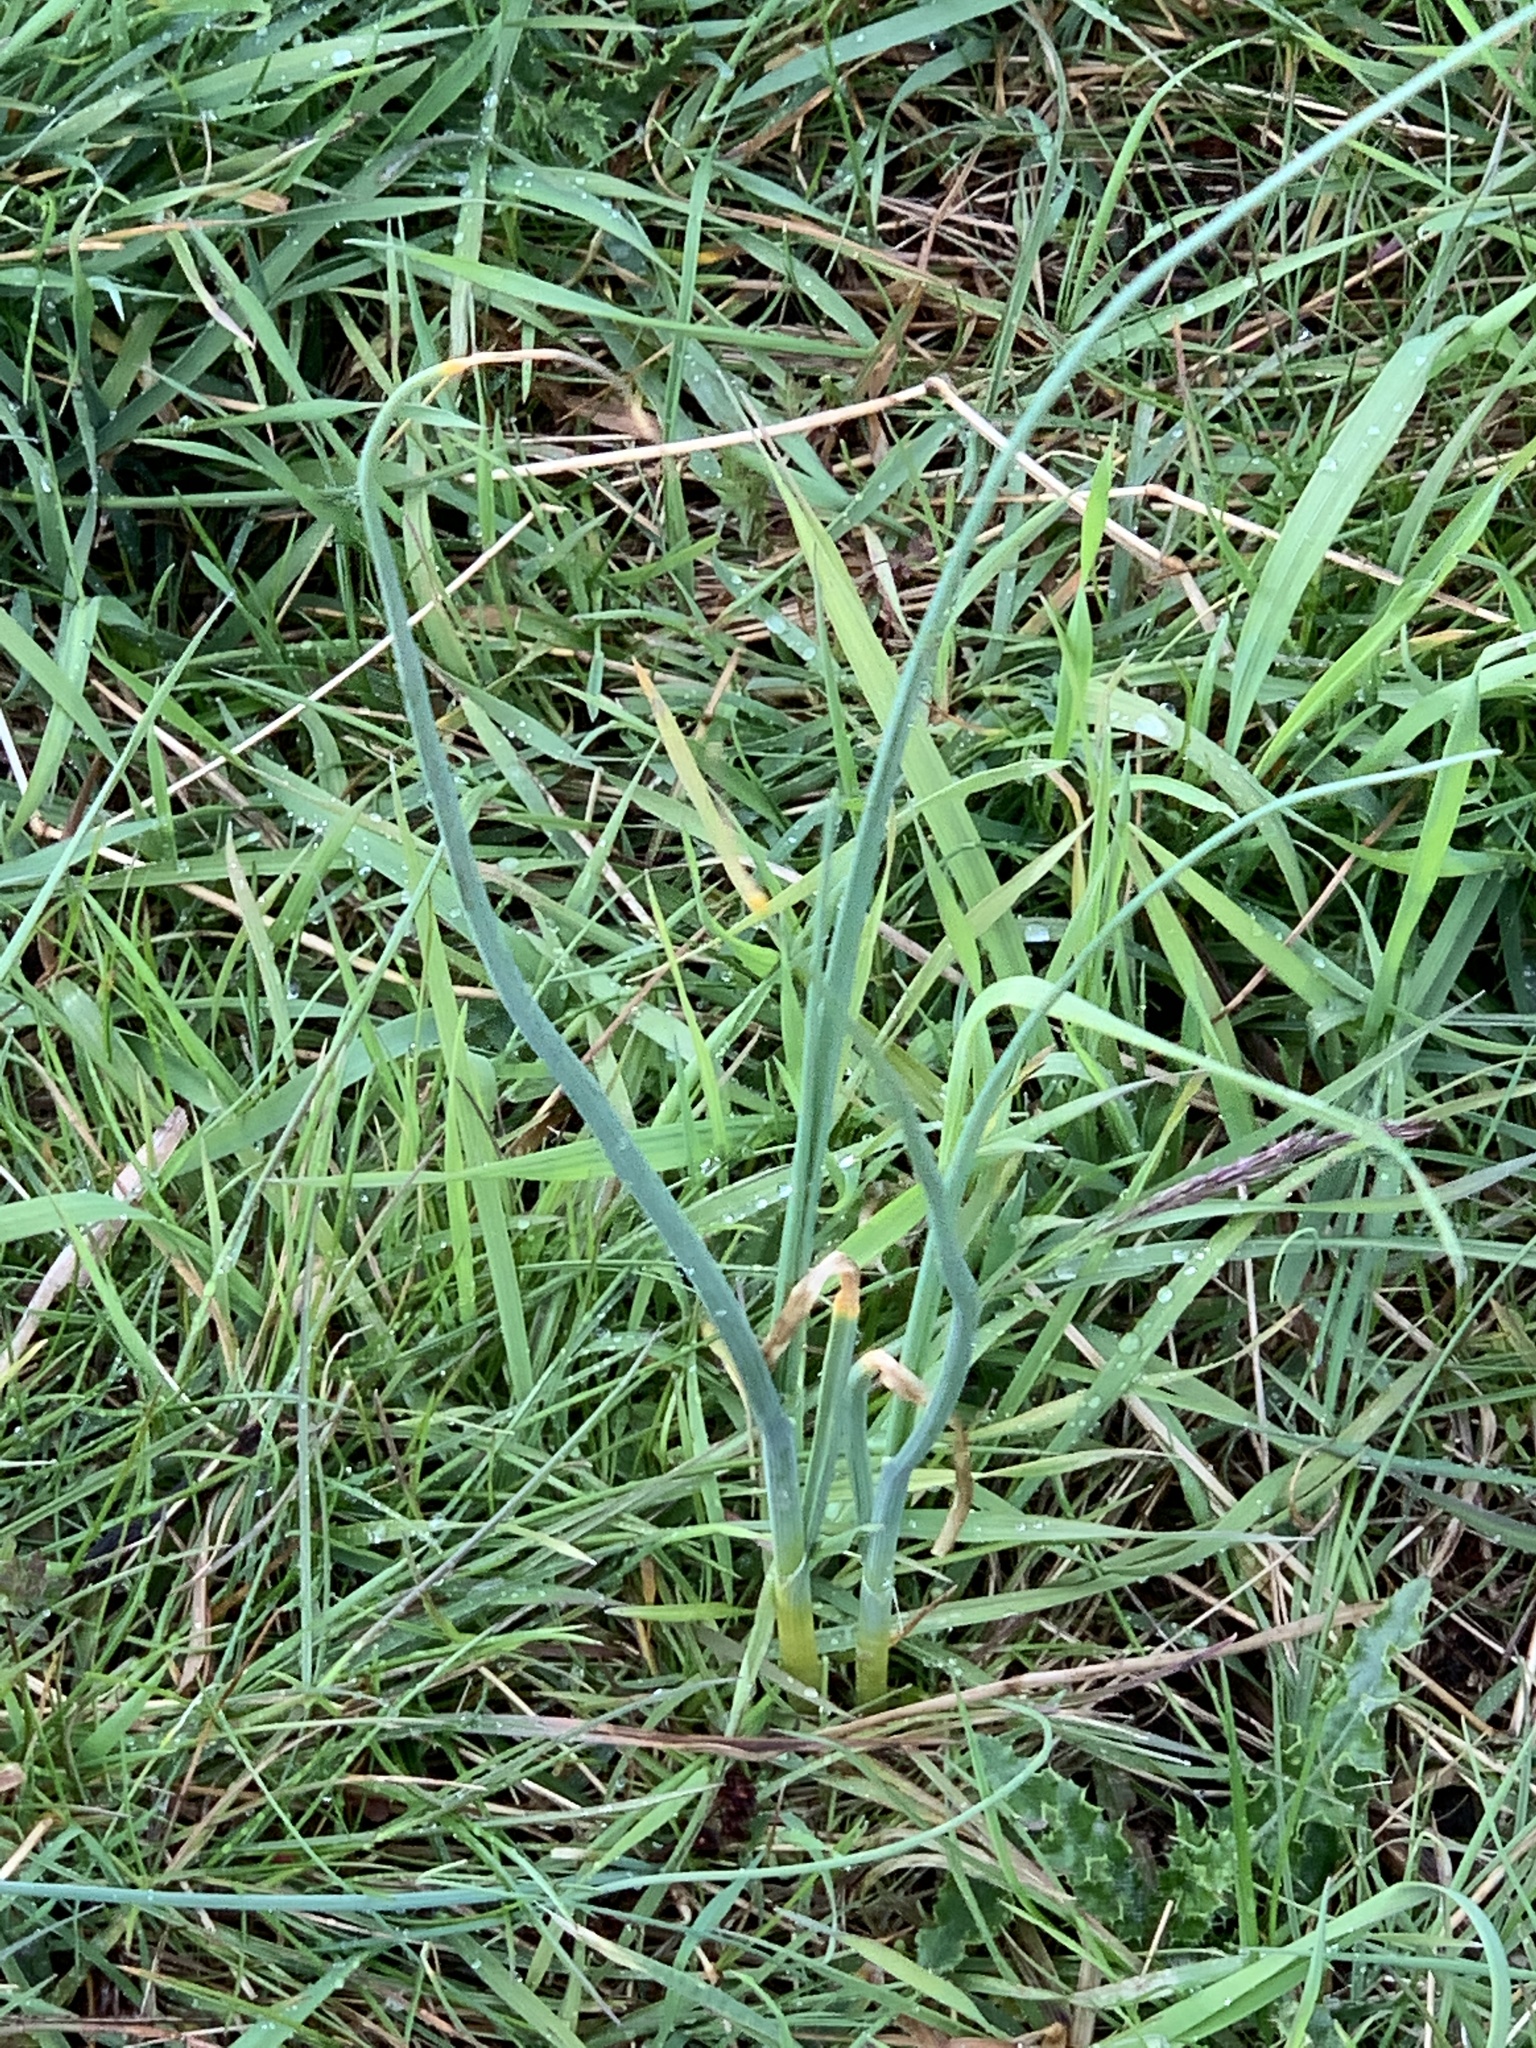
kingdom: Plantae
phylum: Tracheophyta
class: Liliopsida
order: Asparagales
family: Amaryllidaceae
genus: Allium
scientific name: Allium vineale
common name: Crow garlic
